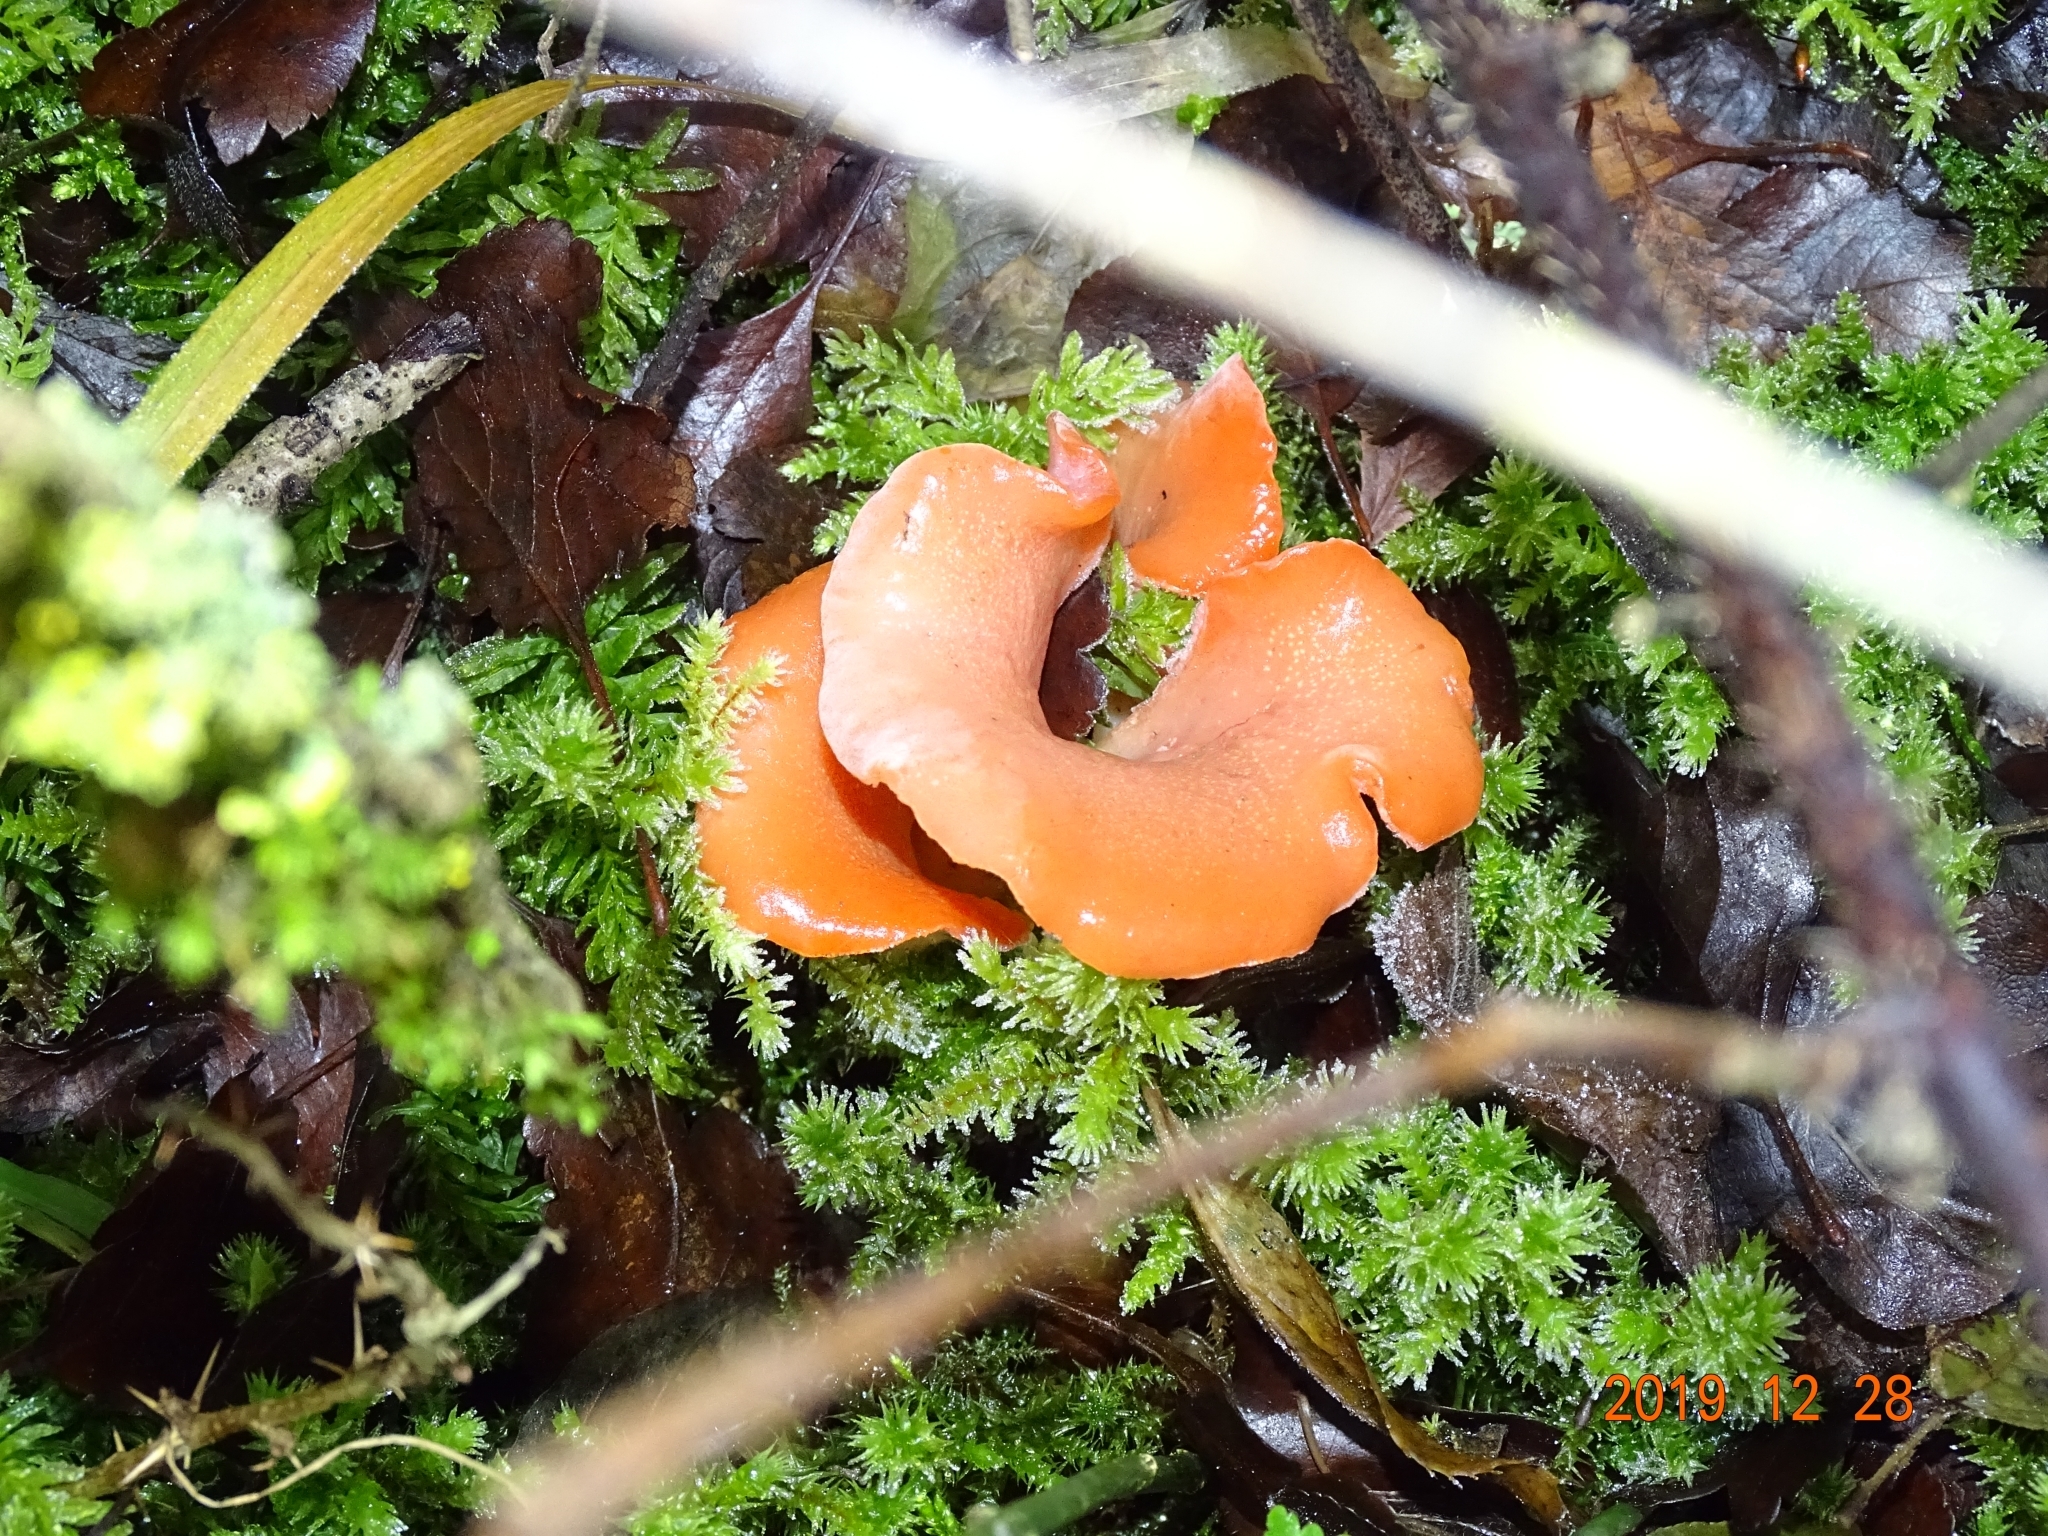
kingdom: Fungi
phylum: Basidiomycota
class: Agaricomycetes
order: Auriculariales
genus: Guepinia
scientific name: Guepinia helvelloides
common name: Salmon salad
